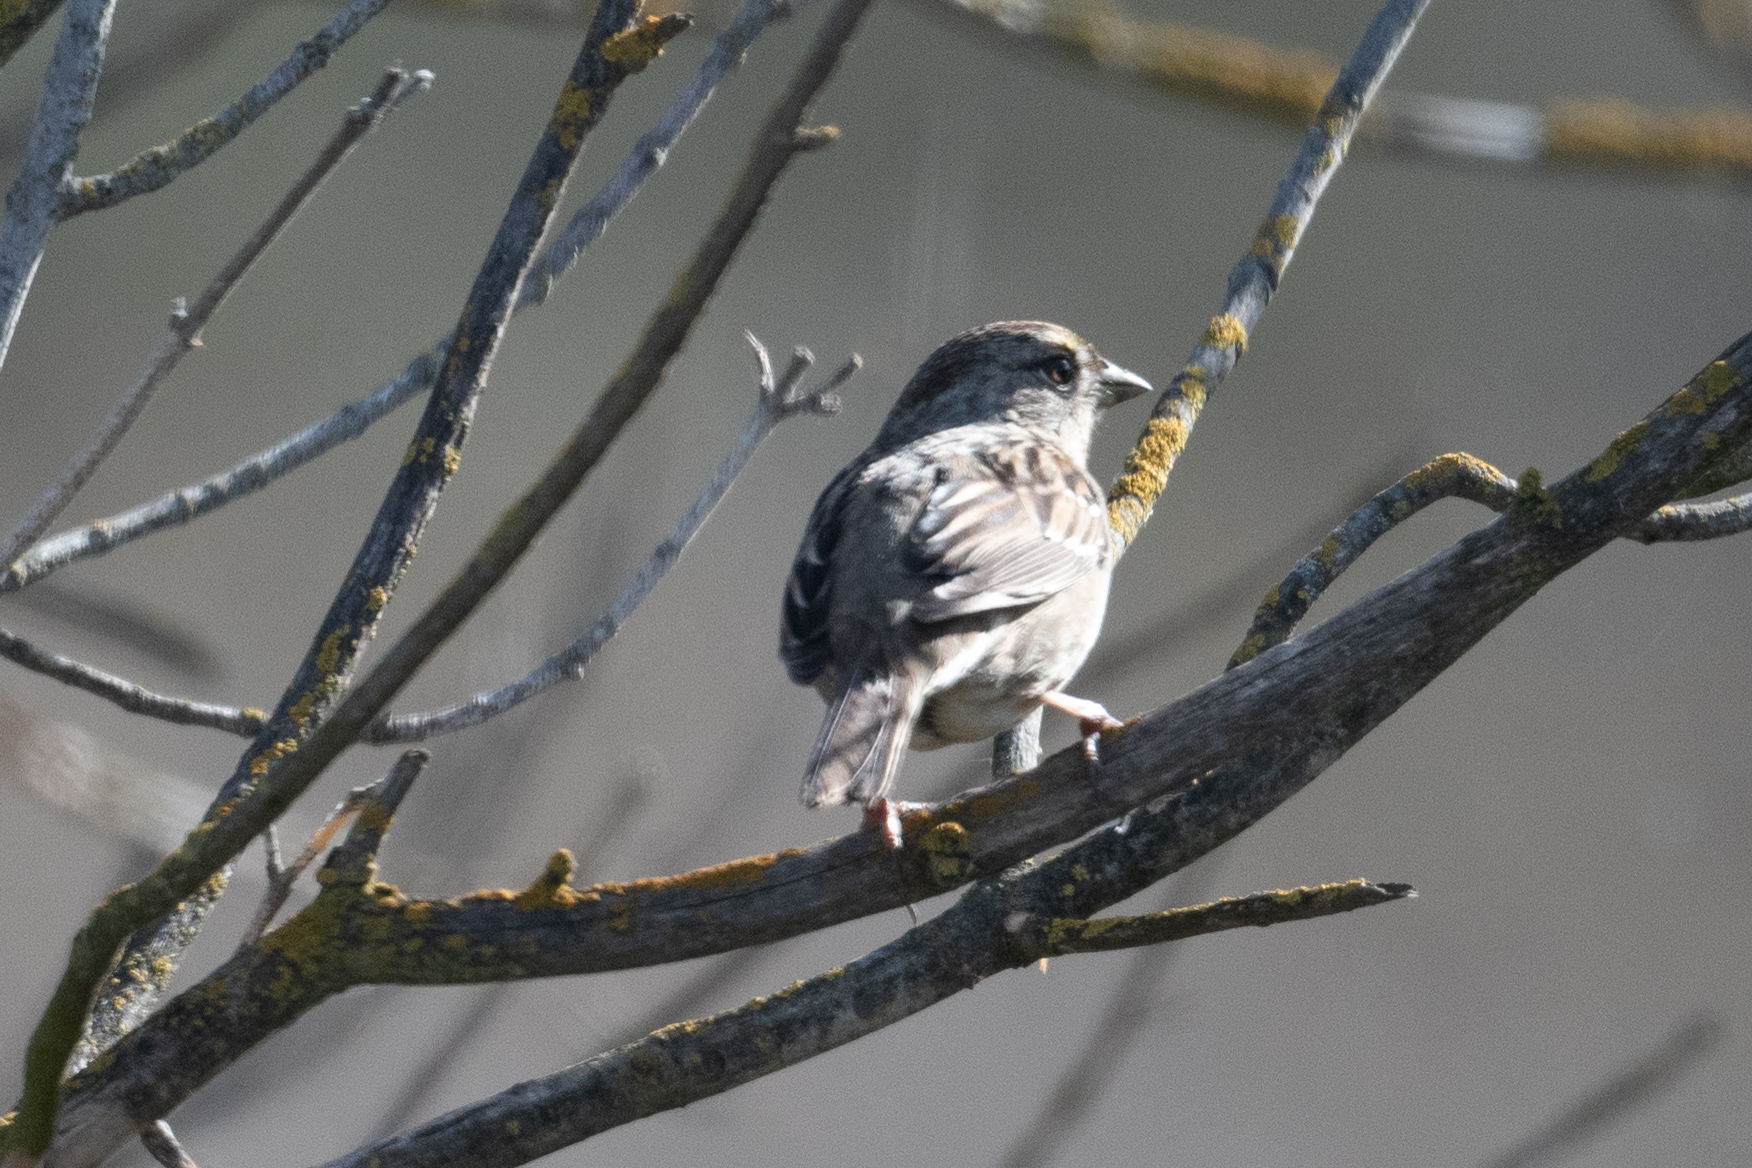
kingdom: Animalia
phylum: Chordata
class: Aves
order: Passeriformes
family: Passerellidae
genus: Zonotrichia
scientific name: Zonotrichia atricapilla
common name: Golden-crowned sparrow
